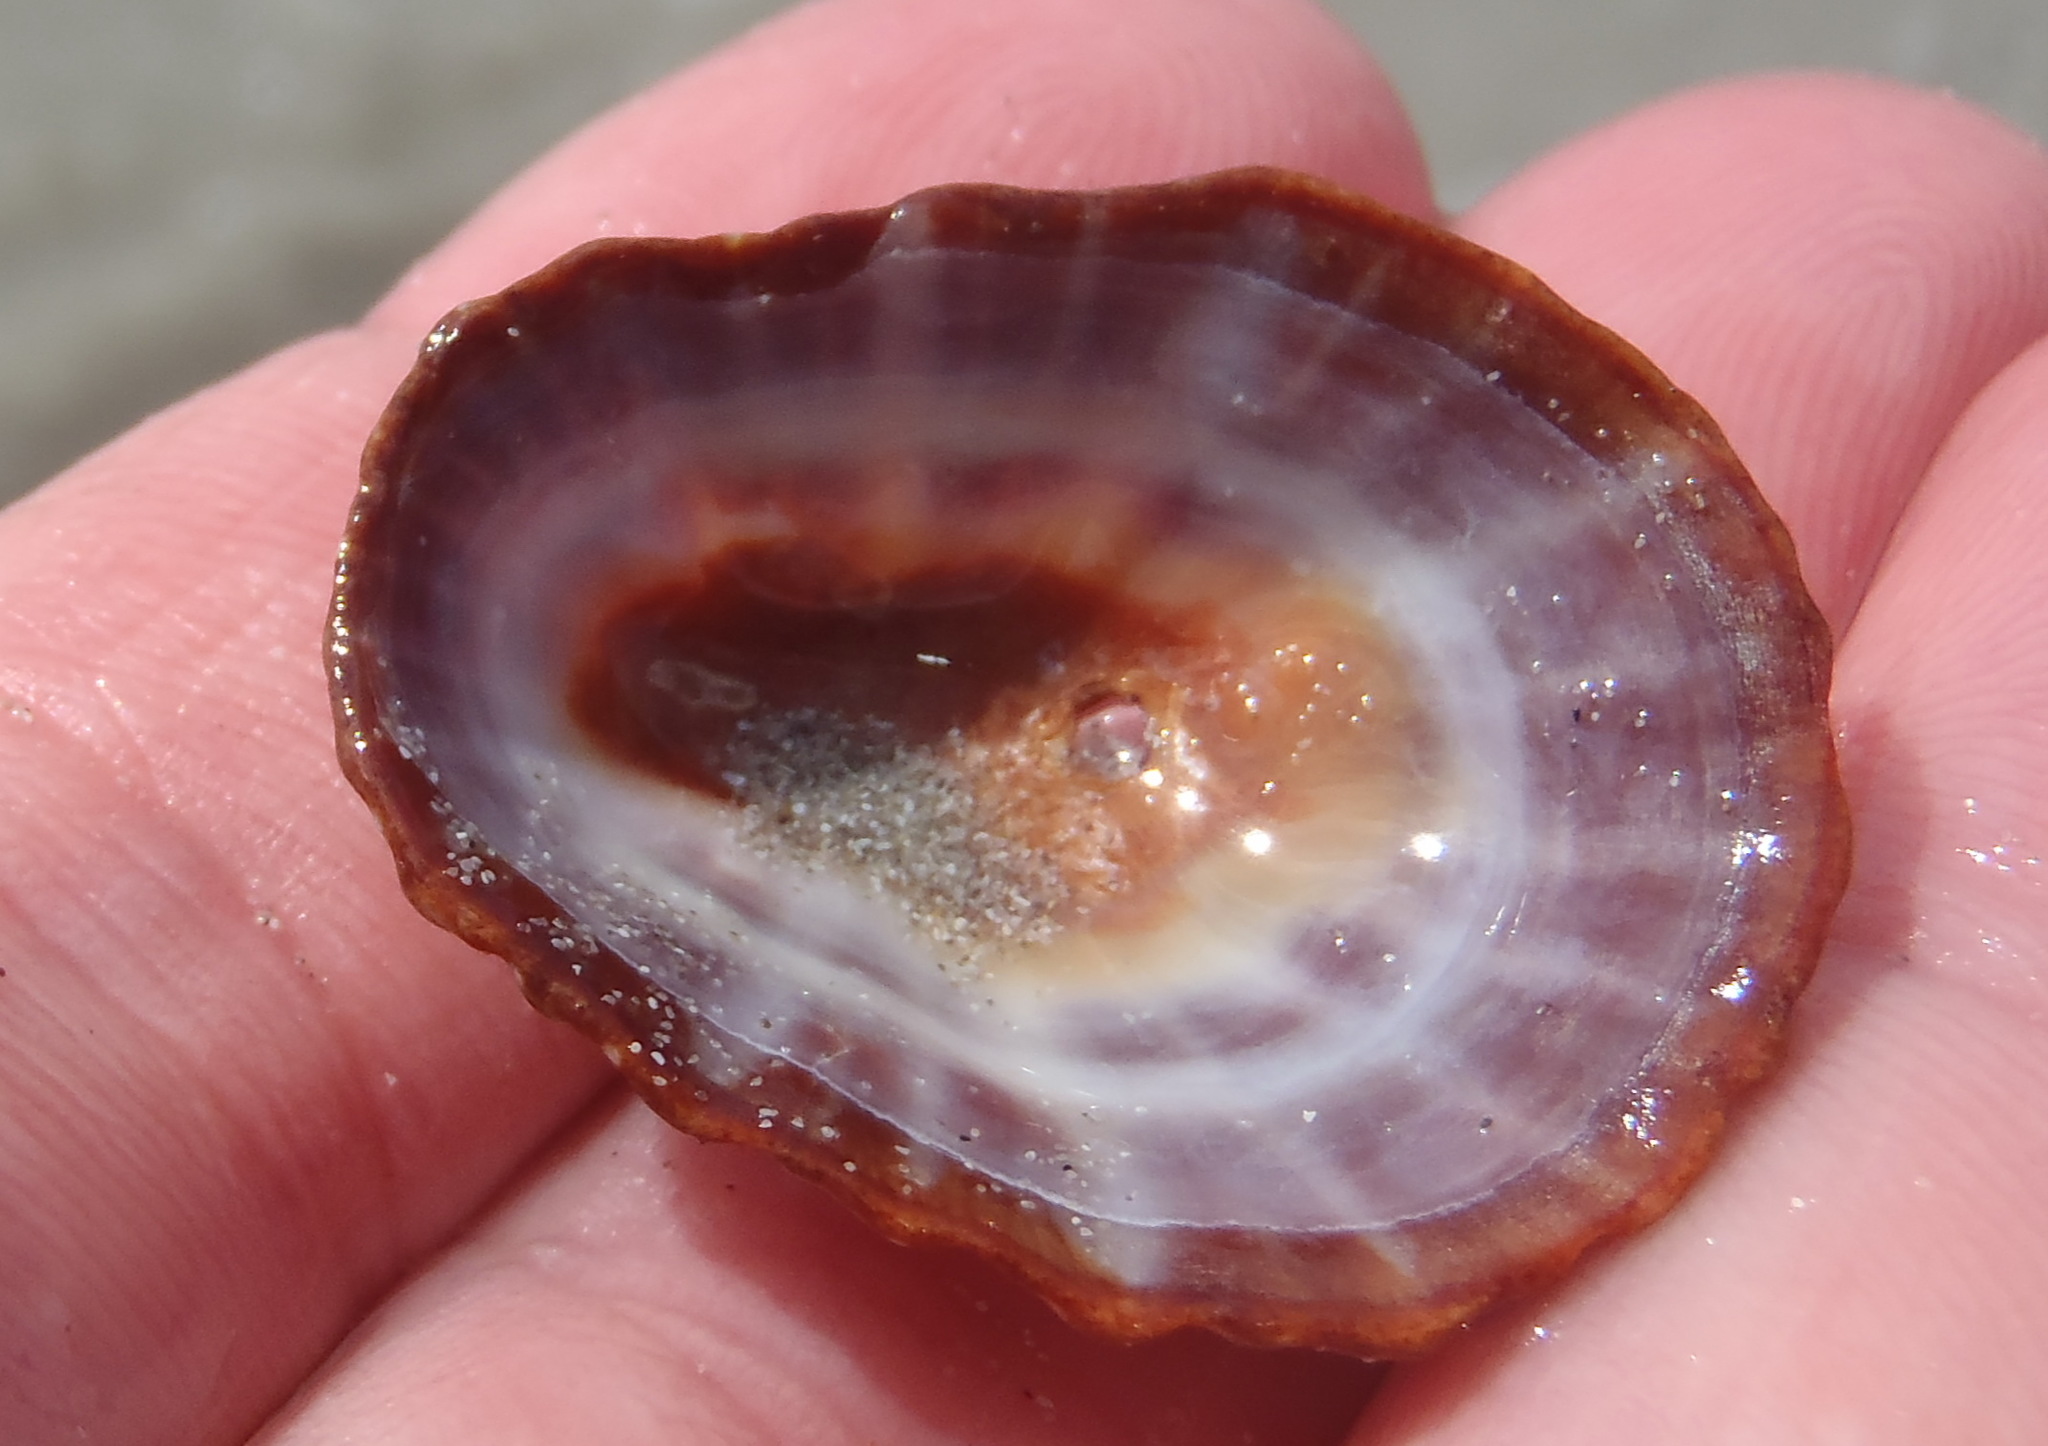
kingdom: Animalia
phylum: Mollusca
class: Gastropoda
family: Patellidae
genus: Scutellastra
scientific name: Scutellastra granularis
